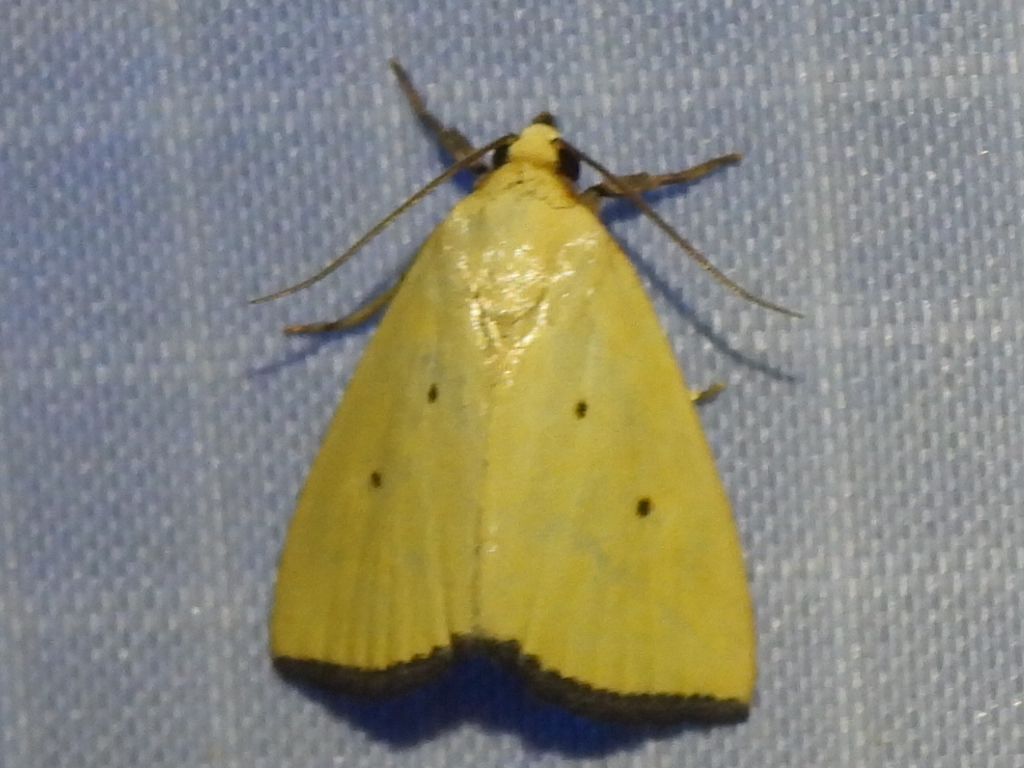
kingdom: Animalia
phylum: Arthropoda
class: Insecta
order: Lepidoptera
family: Noctuidae
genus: Marimatha
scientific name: Marimatha nigrofimbria
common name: Black-bordered lemon moth
